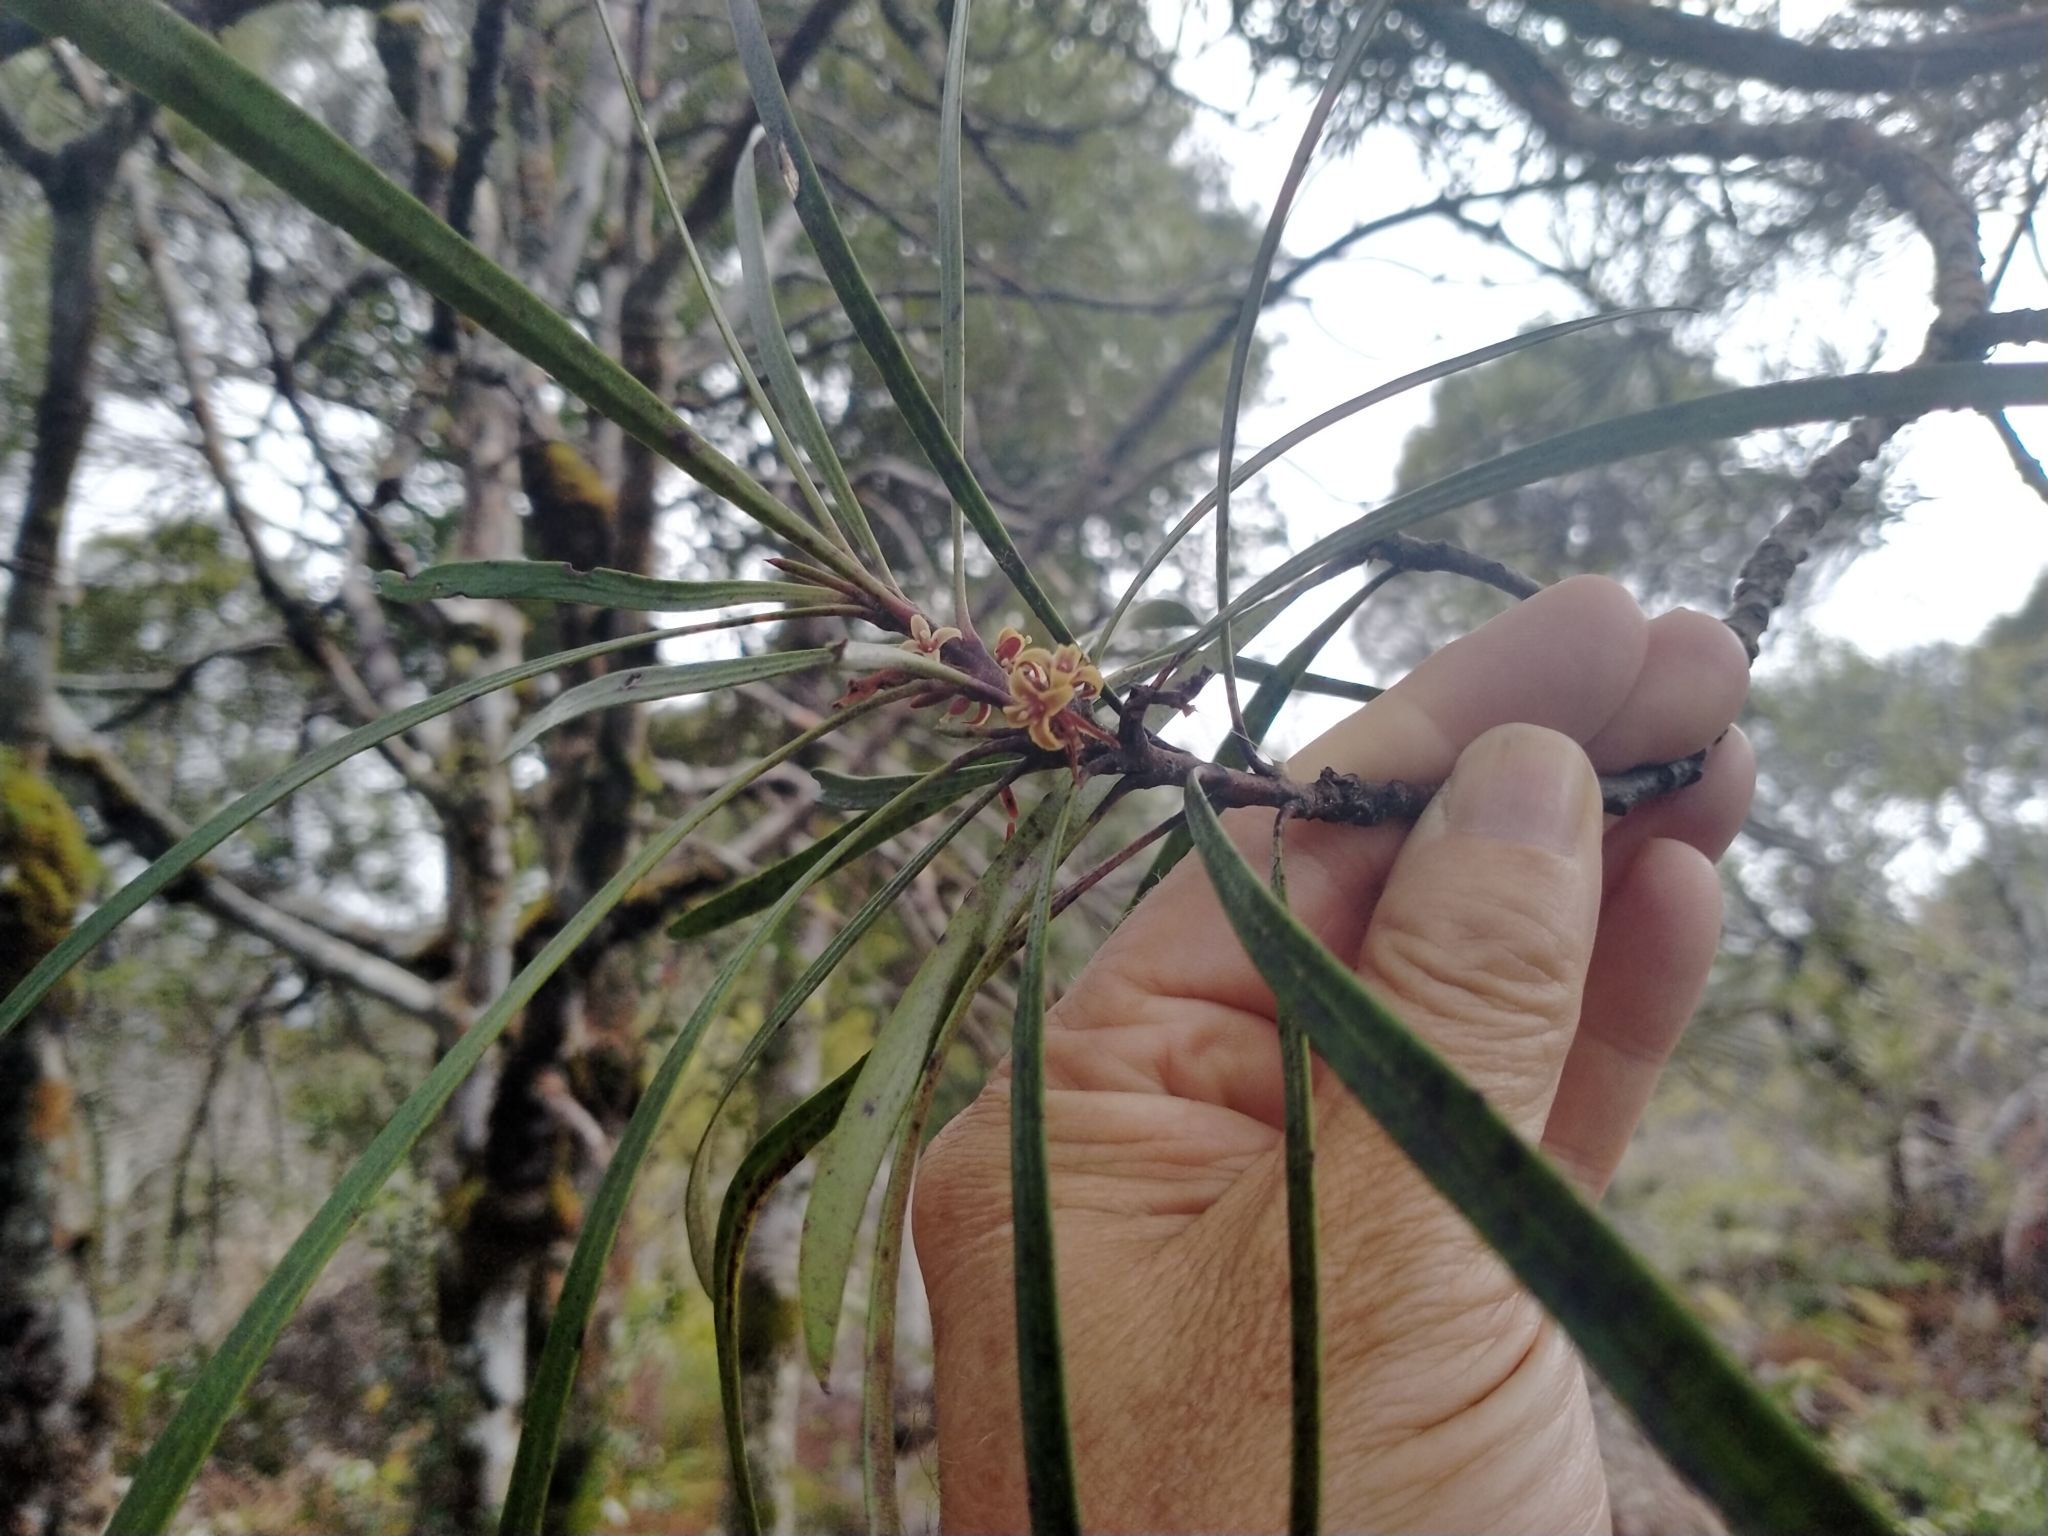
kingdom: Plantae
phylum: Tracheophyta
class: Magnoliopsida
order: Proteales
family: Proteaceae
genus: Toronia
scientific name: Toronia toru
